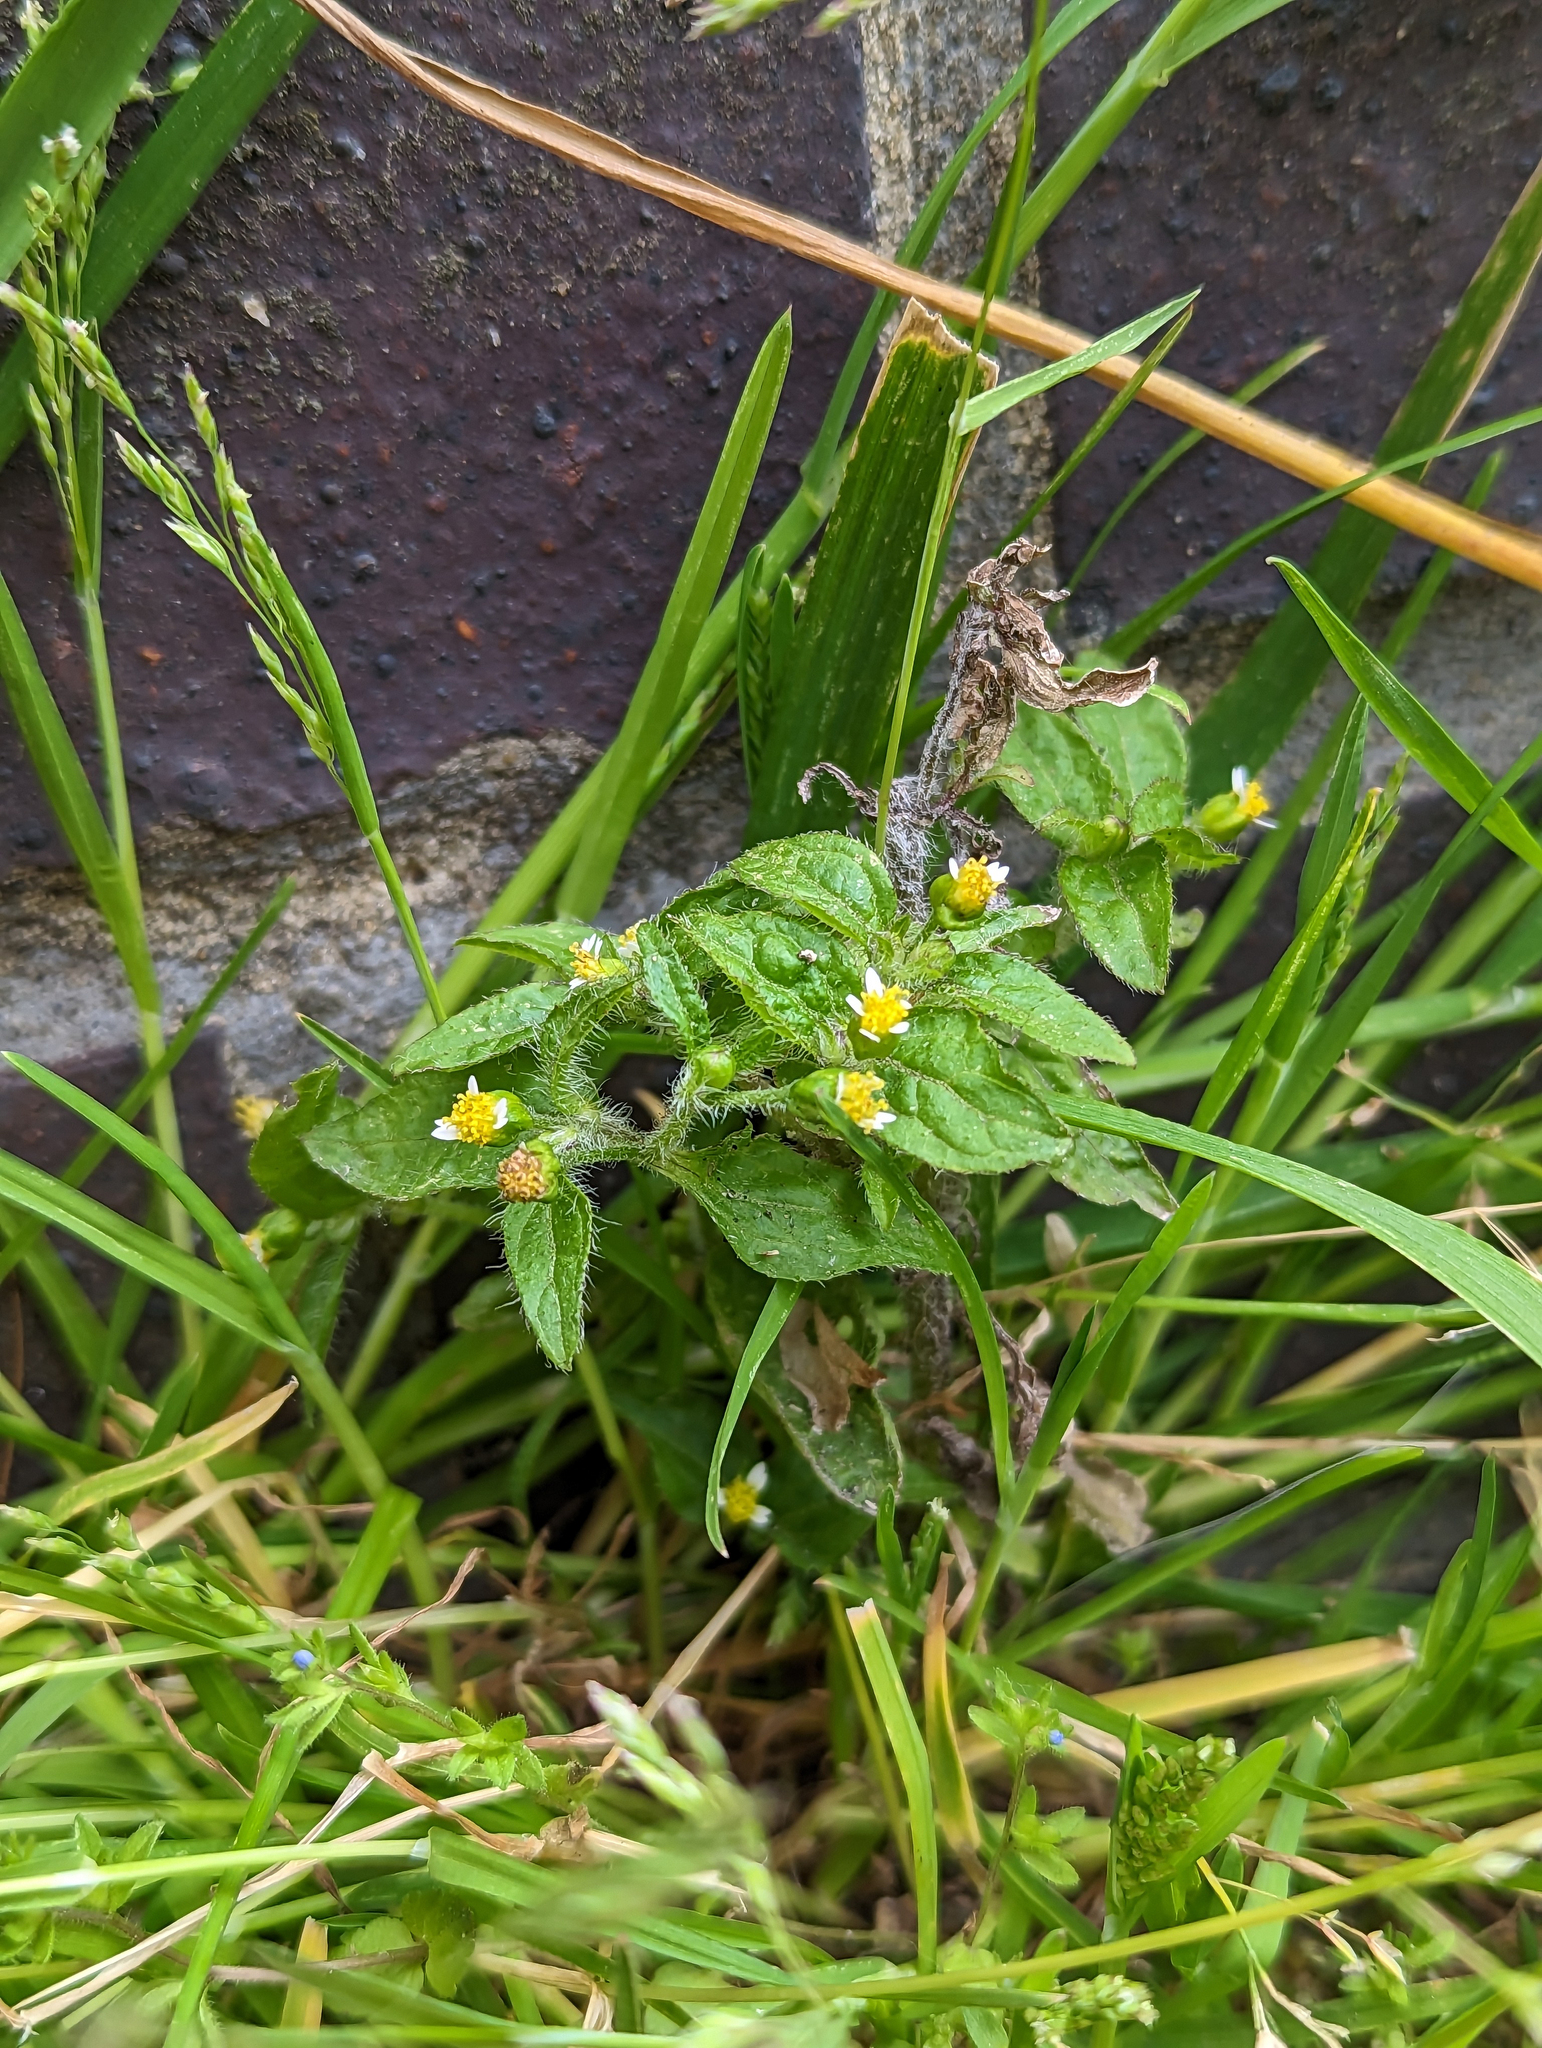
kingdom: Plantae
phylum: Tracheophyta
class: Magnoliopsida
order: Asterales
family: Asteraceae
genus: Galinsoga
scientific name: Galinsoga quadriradiata
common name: Shaggy soldier
